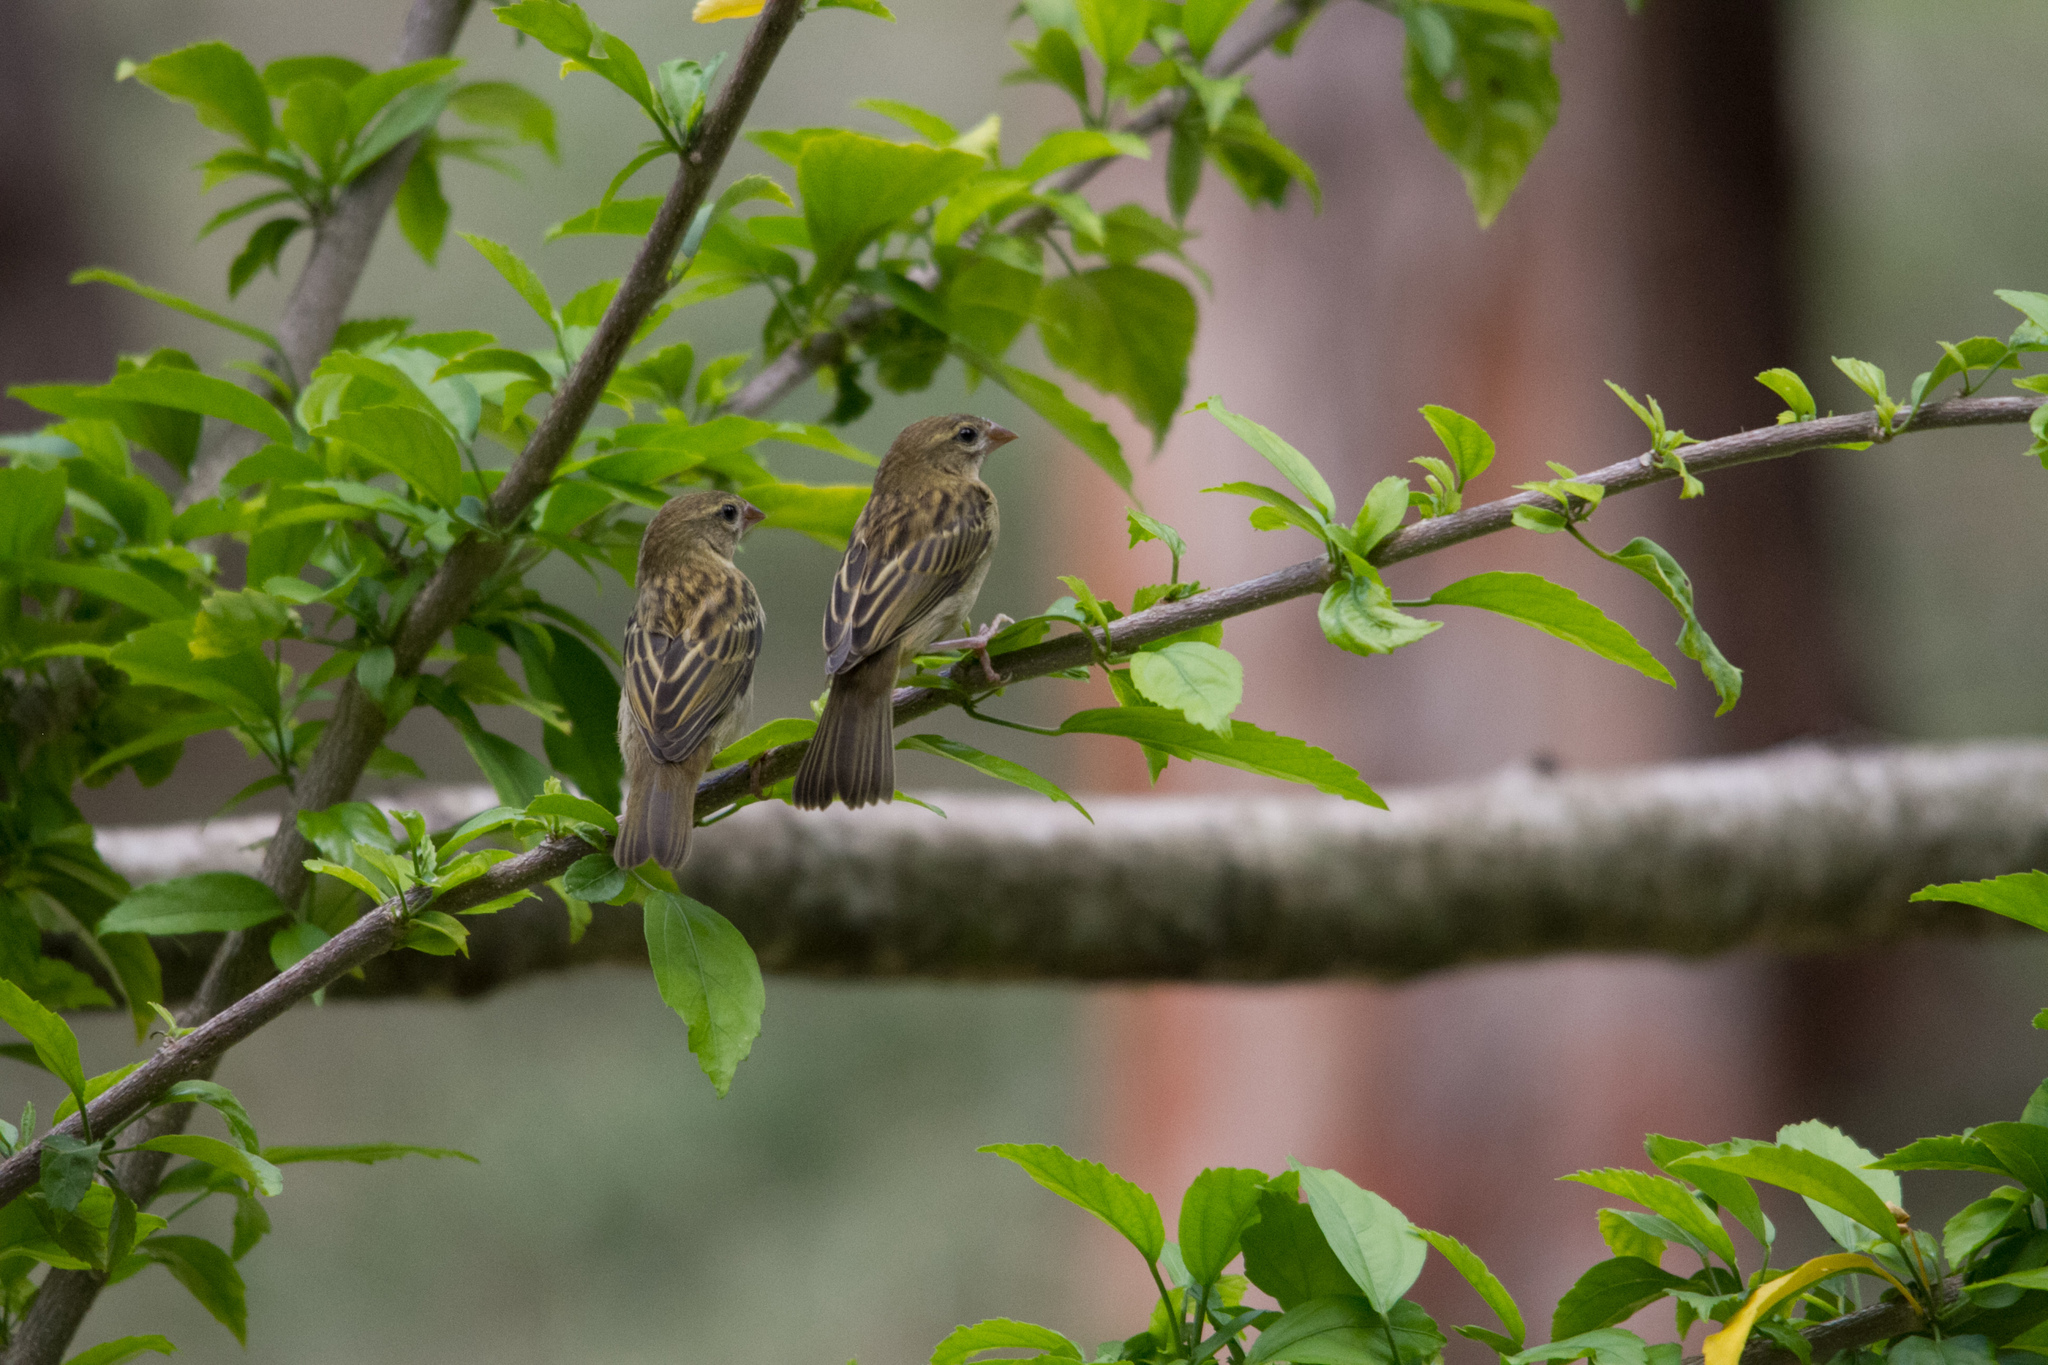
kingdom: Animalia
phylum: Chordata
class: Aves
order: Passeriformes
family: Ploceidae
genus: Foudia
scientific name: Foudia madagascariensis
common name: Red fody
